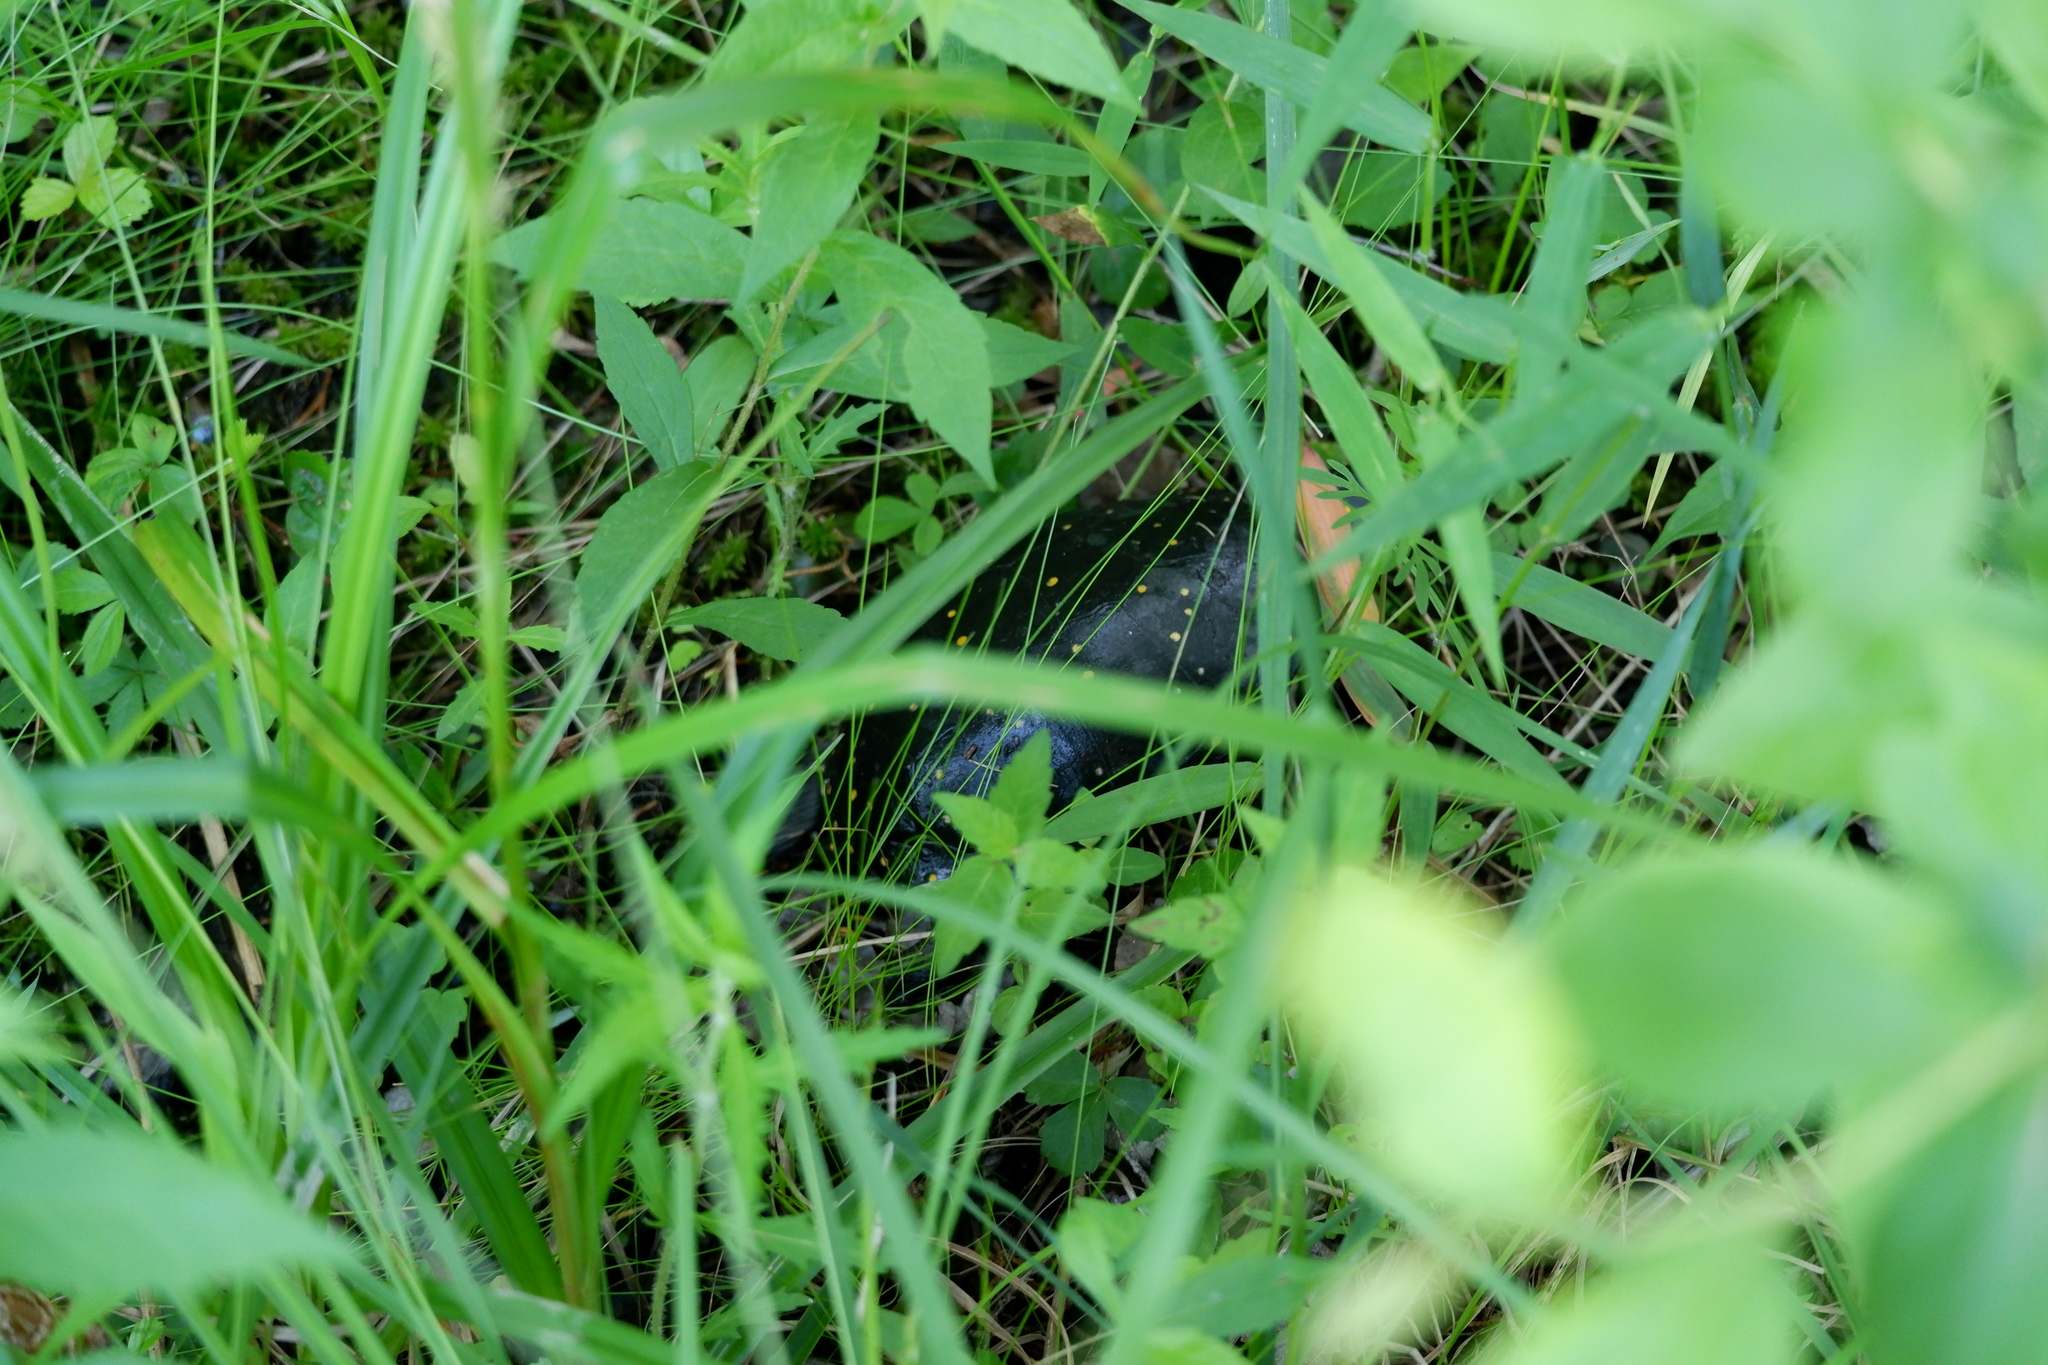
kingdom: Animalia
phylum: Chordata
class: Testudines
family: Emydidae
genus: Clemmys
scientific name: Clemmys guttata
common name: Spotted turtle
